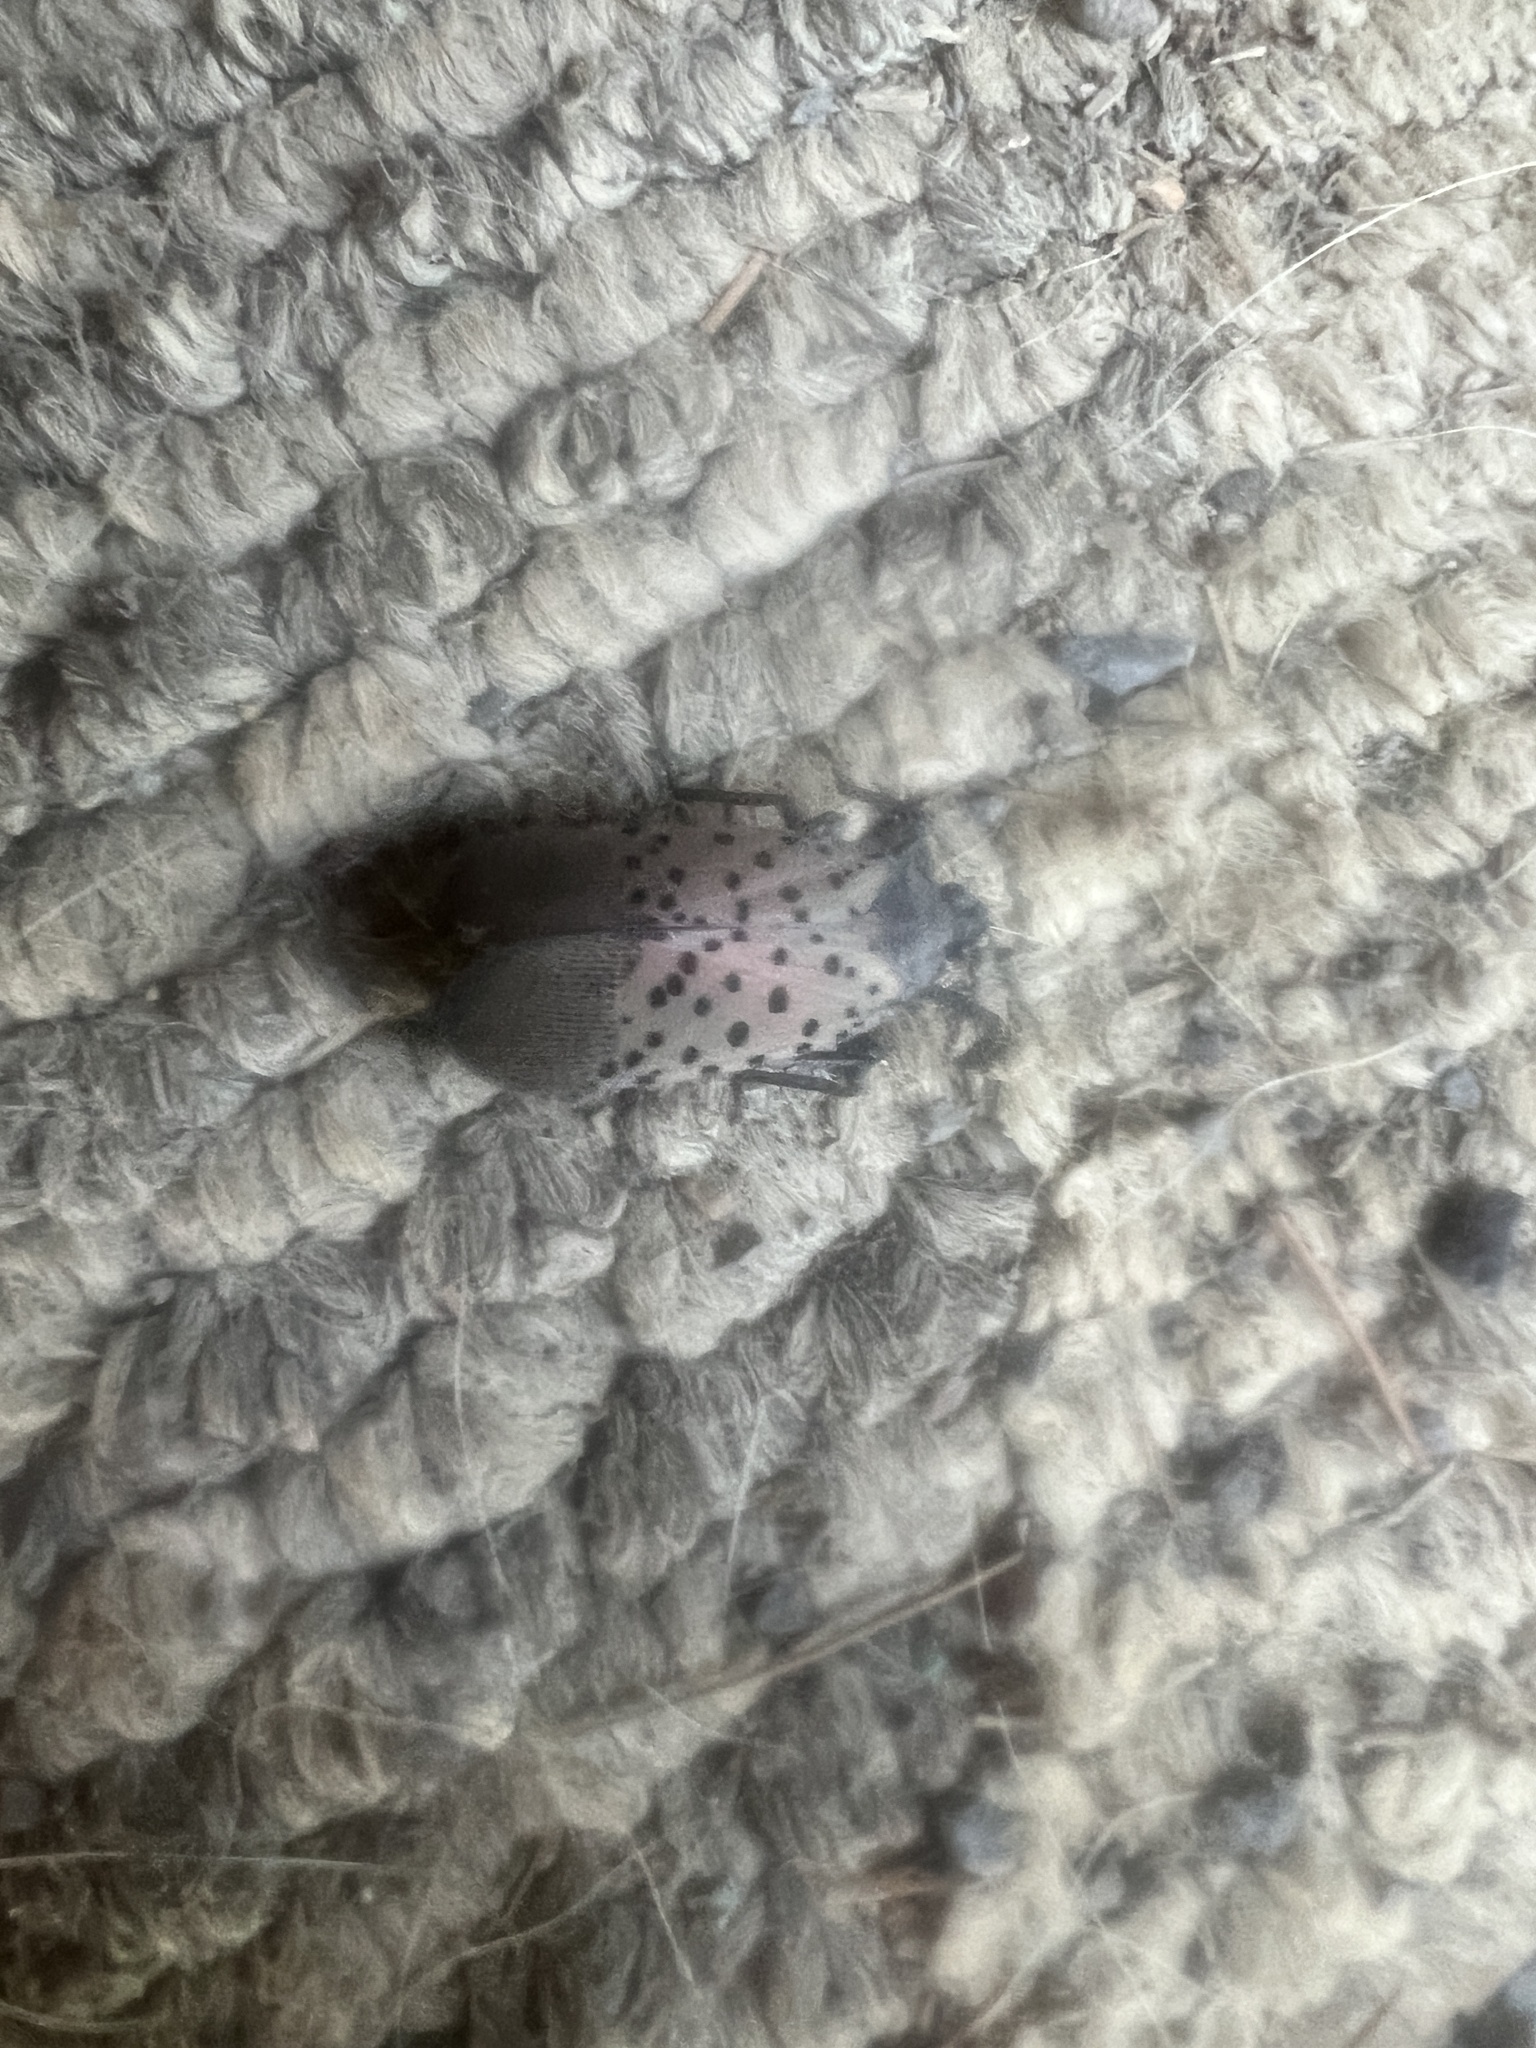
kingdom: Animalia
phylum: Arthropoda
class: Insecta
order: Hemiptera
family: Fulgoridae
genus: Lycorma
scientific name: Lycorma delicatula
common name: Spotted lanternfly
